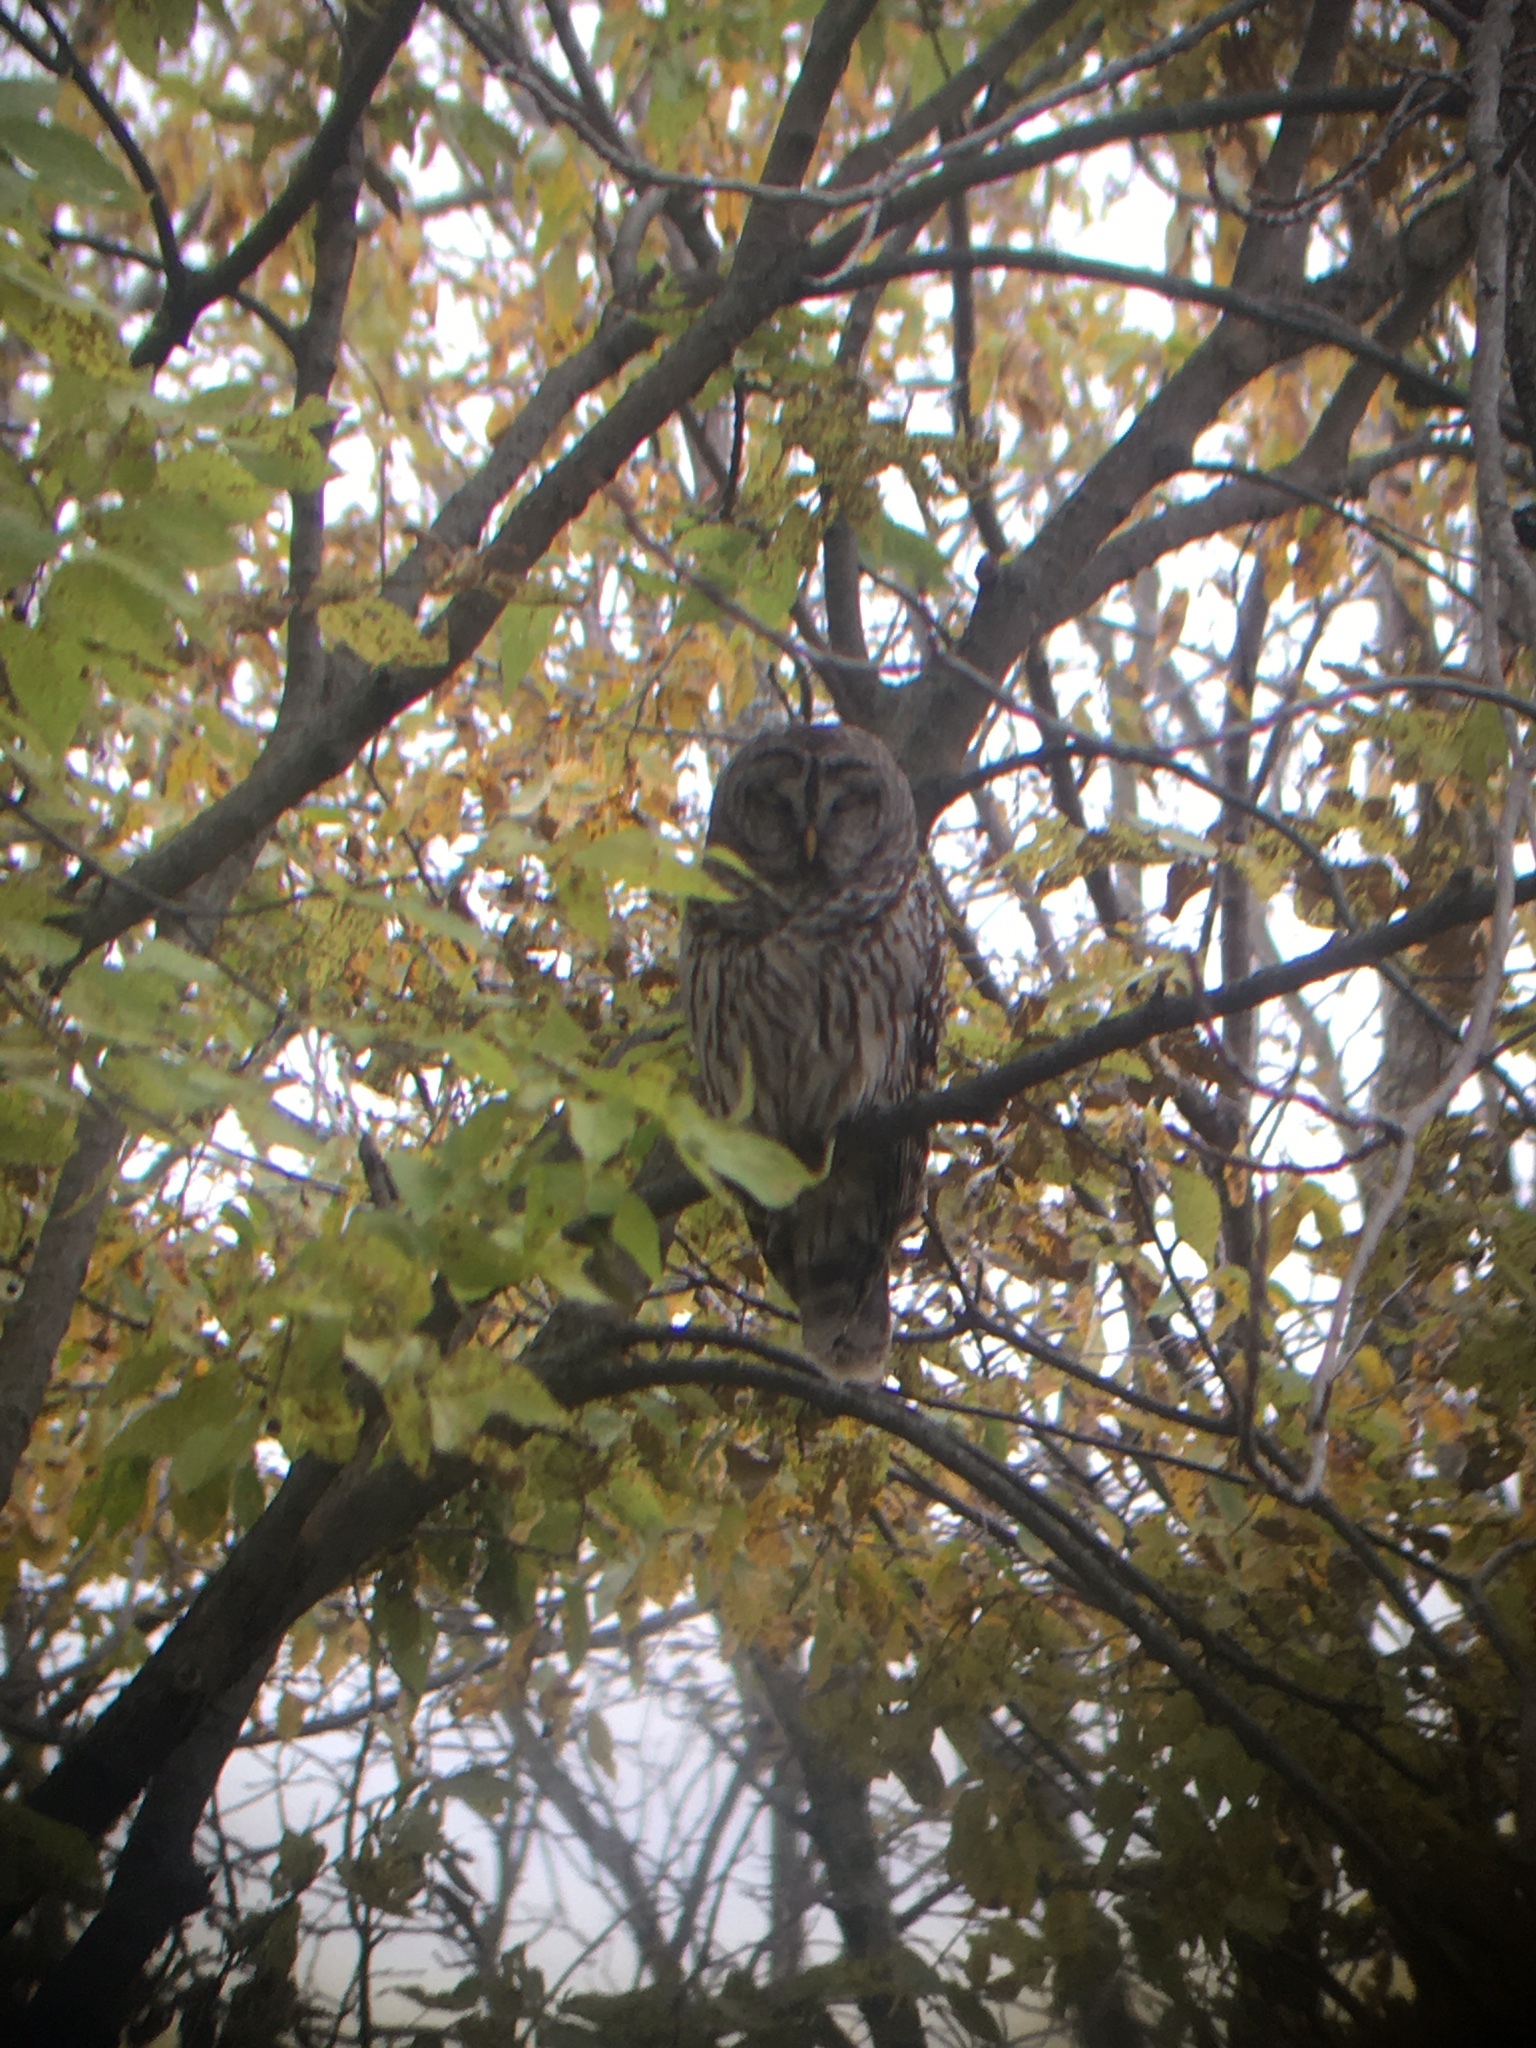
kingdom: Animalia
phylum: Chordata
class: Aves
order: Strigiformes
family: Strigidae
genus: Strix
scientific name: Strix varia
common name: Barred owl
